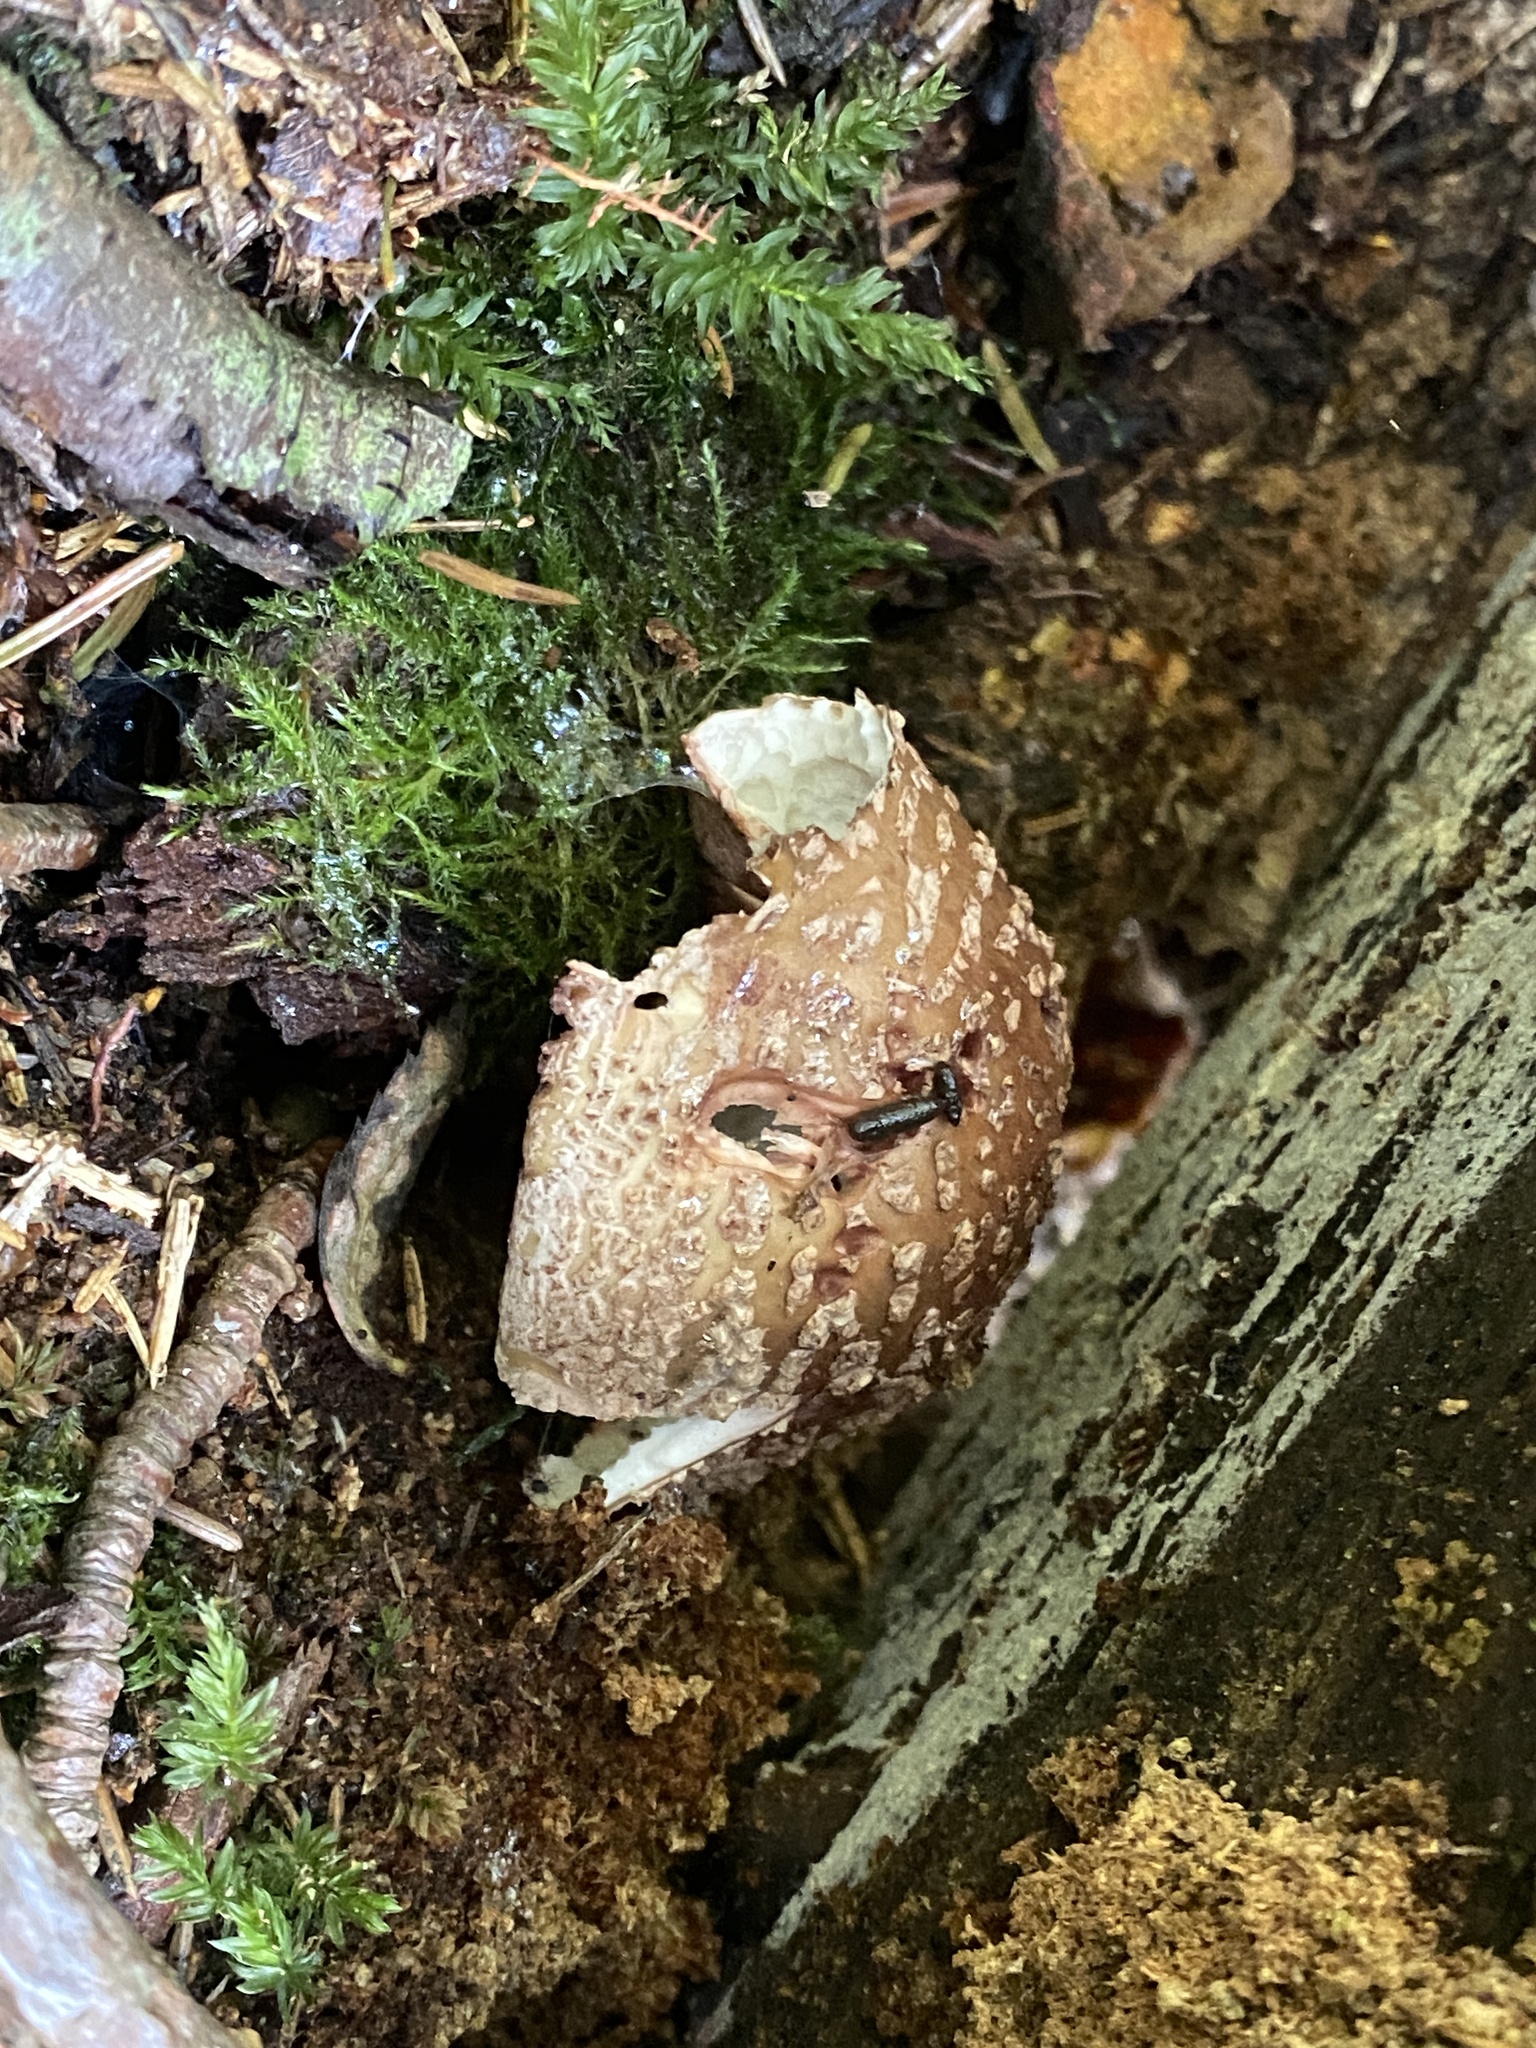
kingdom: Fungi
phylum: Basidiomycota
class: Agaricomycetes
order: Agaricales
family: Amanitaceae
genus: Amanita
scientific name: Amanita rubescens
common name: Blusher
